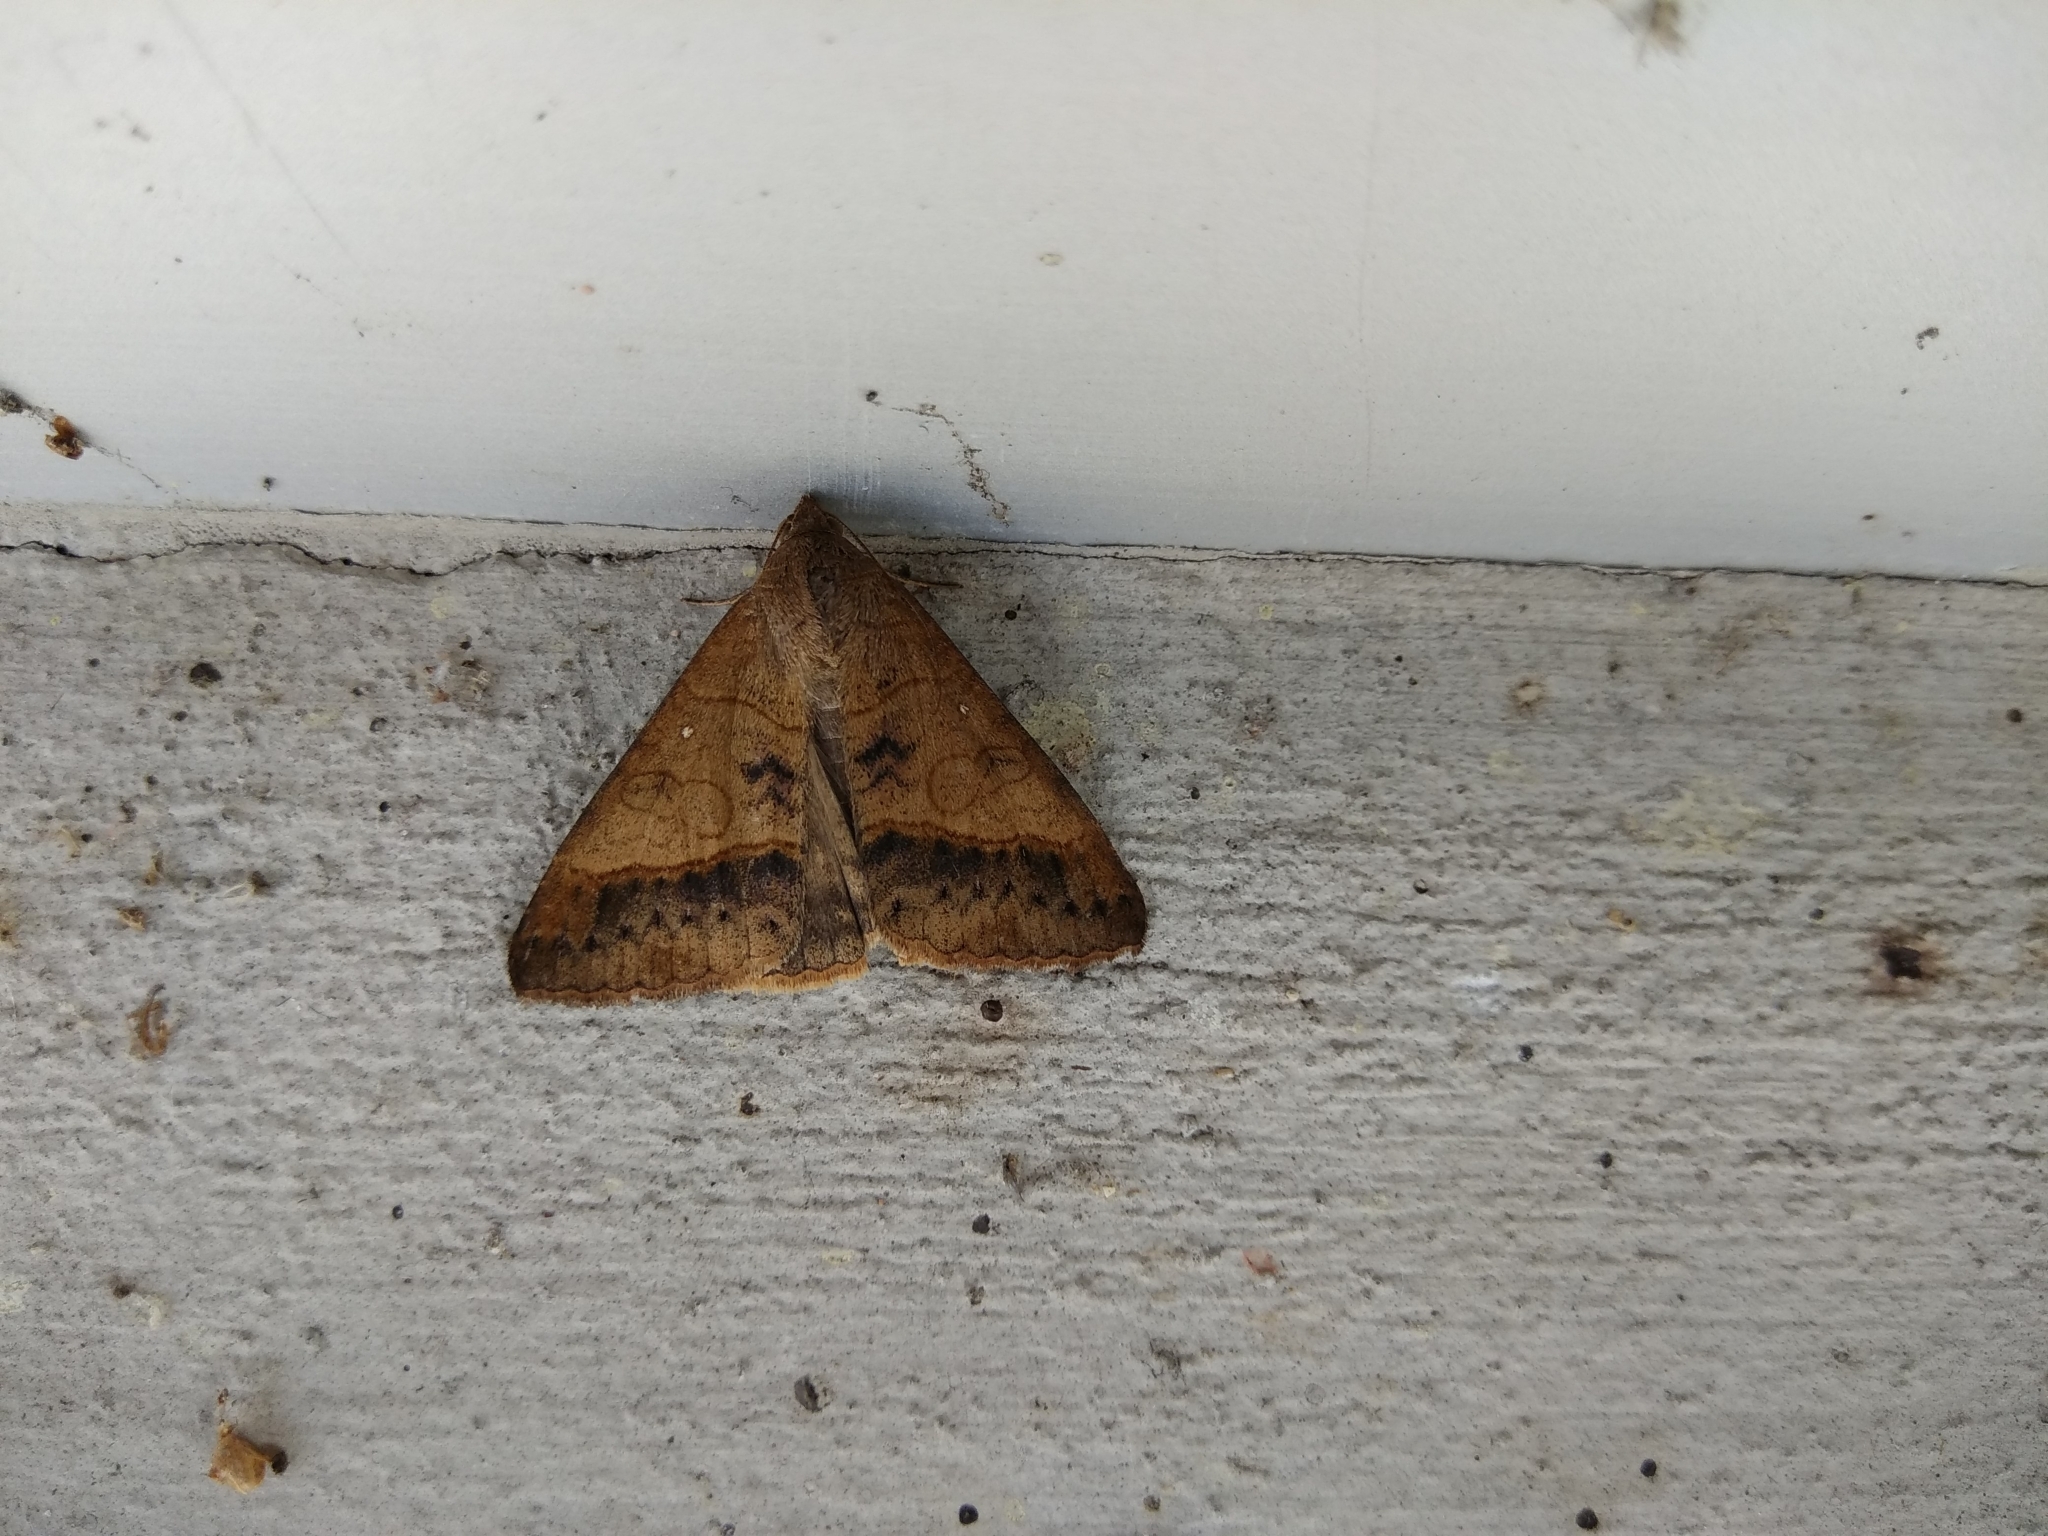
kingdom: Animalia
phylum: Arthropoda
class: Insecta
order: Lepidoptera
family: Erebidae
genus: Mocis
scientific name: Mocis latipes
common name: Striped grass looper
